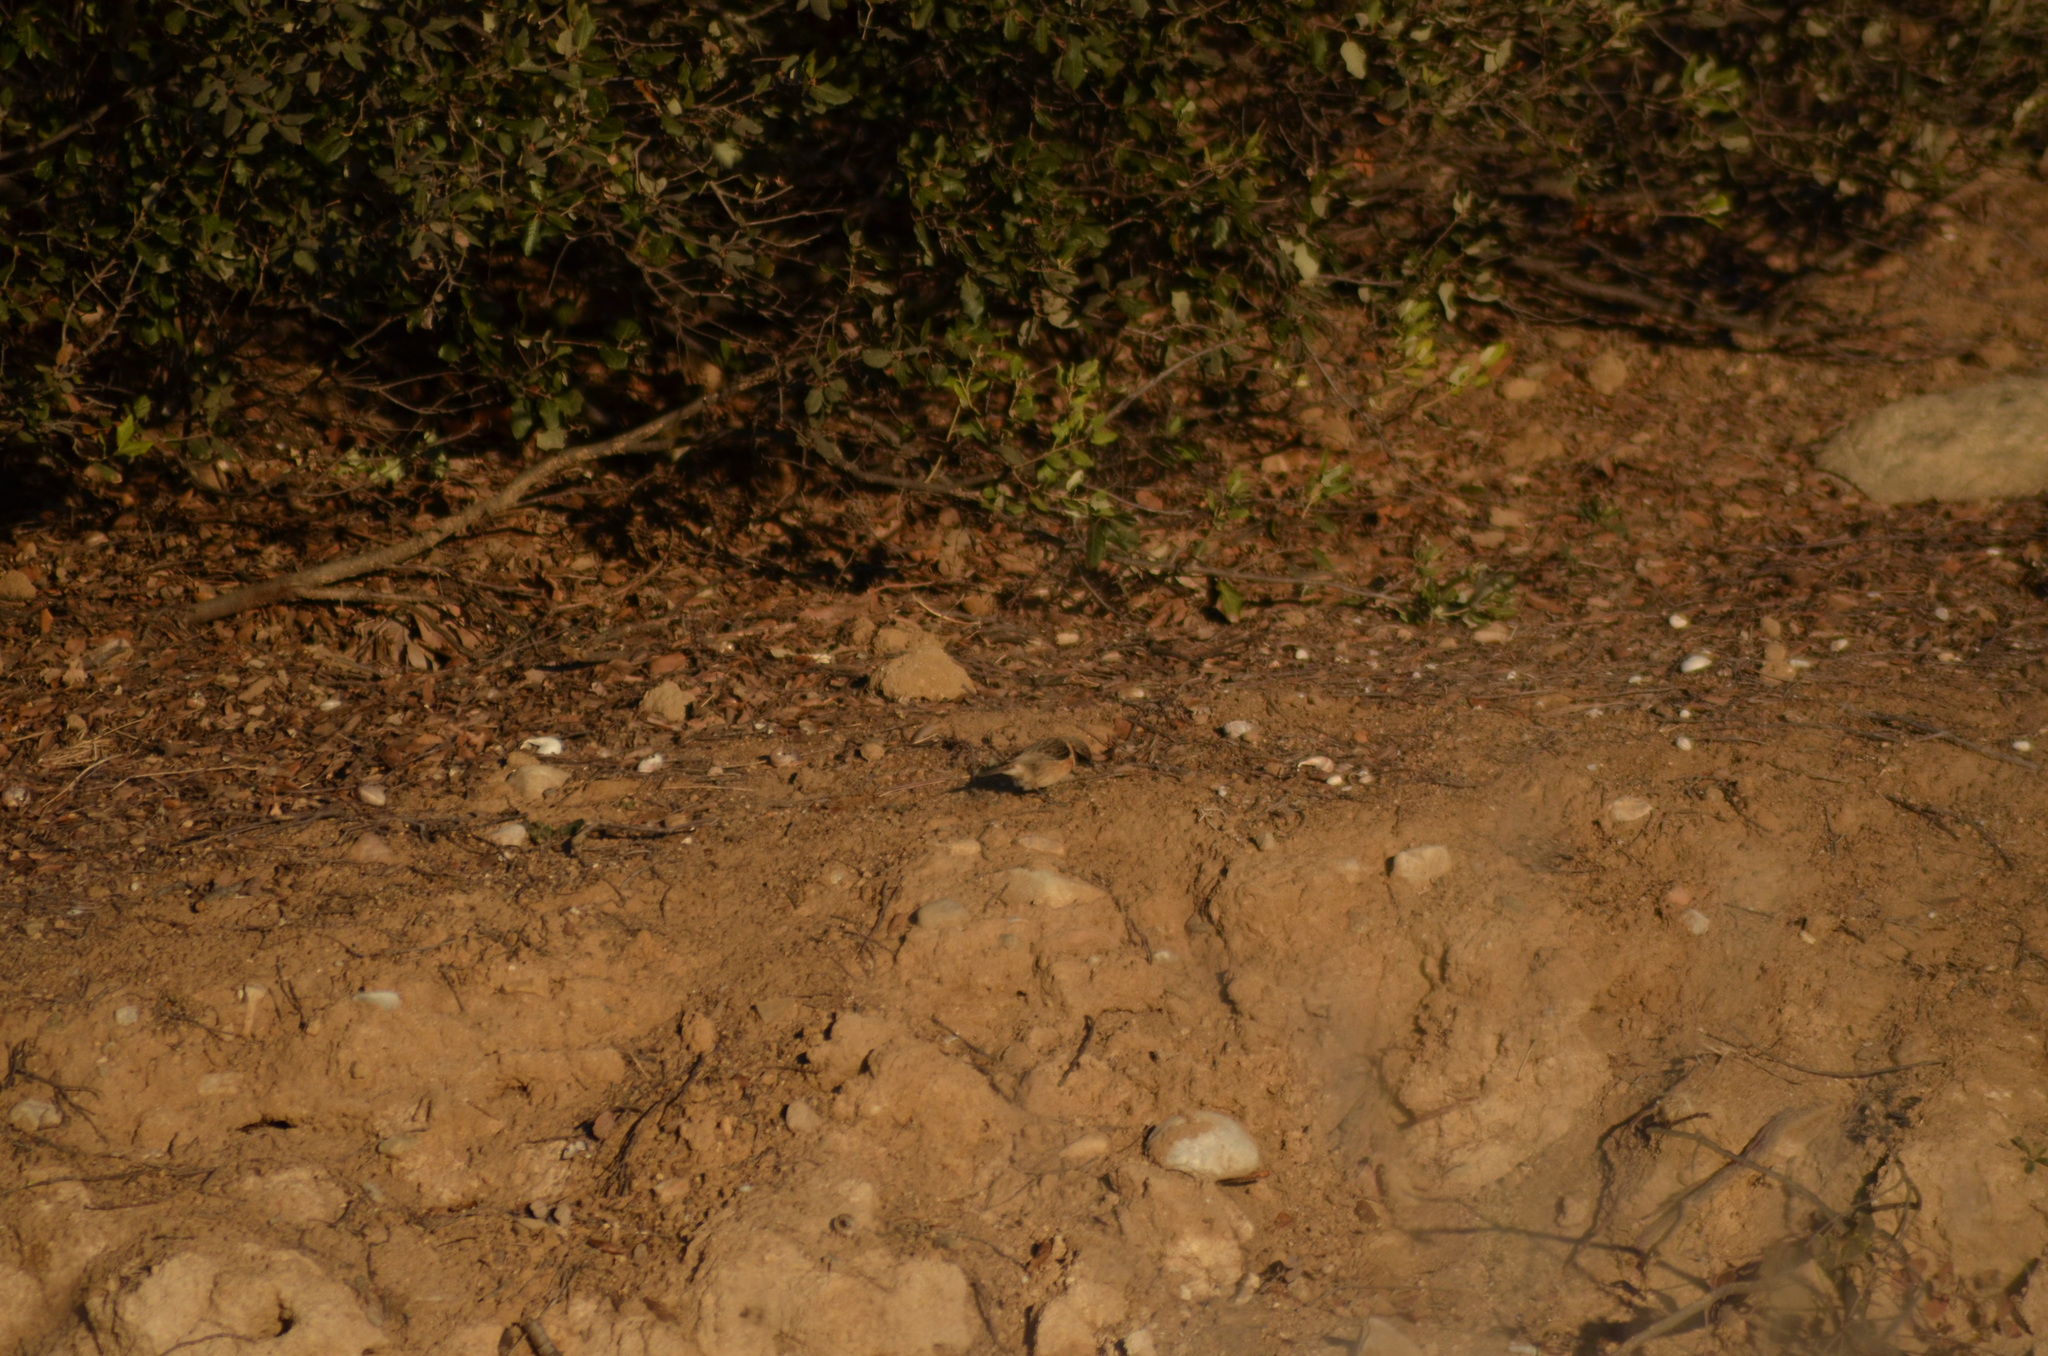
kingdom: Animalia
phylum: Chordata
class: Aves
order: Passeriformes
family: Muscicapidae
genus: Saxicola
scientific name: Saxicola rubicola
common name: European stonechat
